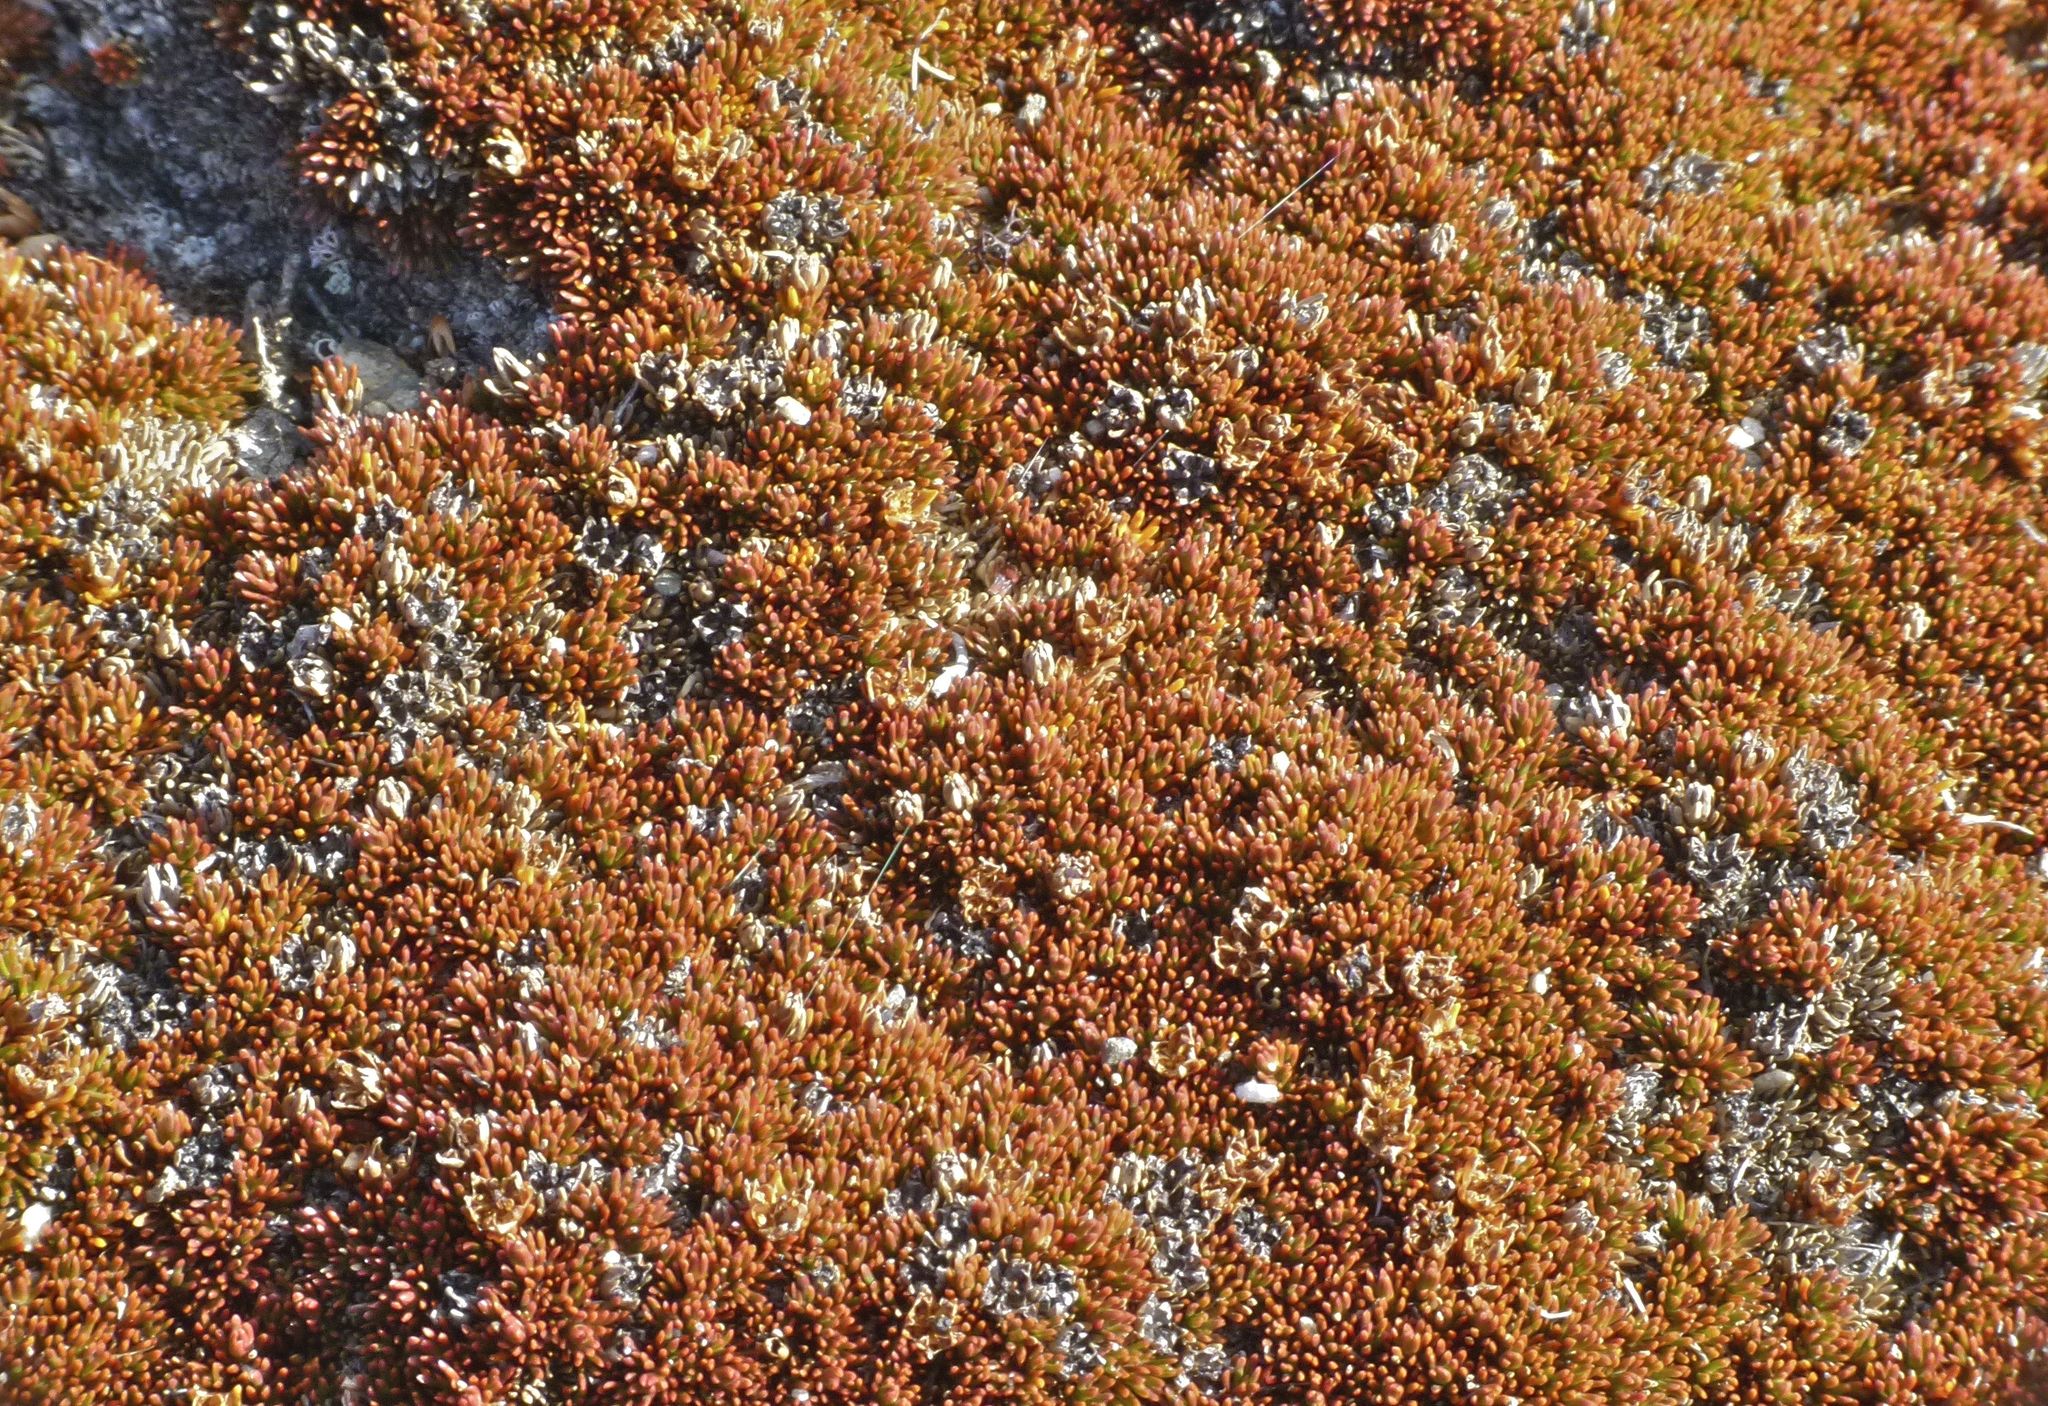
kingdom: Plantae
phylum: Tracheophyta
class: Magnoliopsida
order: Ericales
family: Ericaceae
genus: Dracophyllum
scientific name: Dracophyllum muscoides
